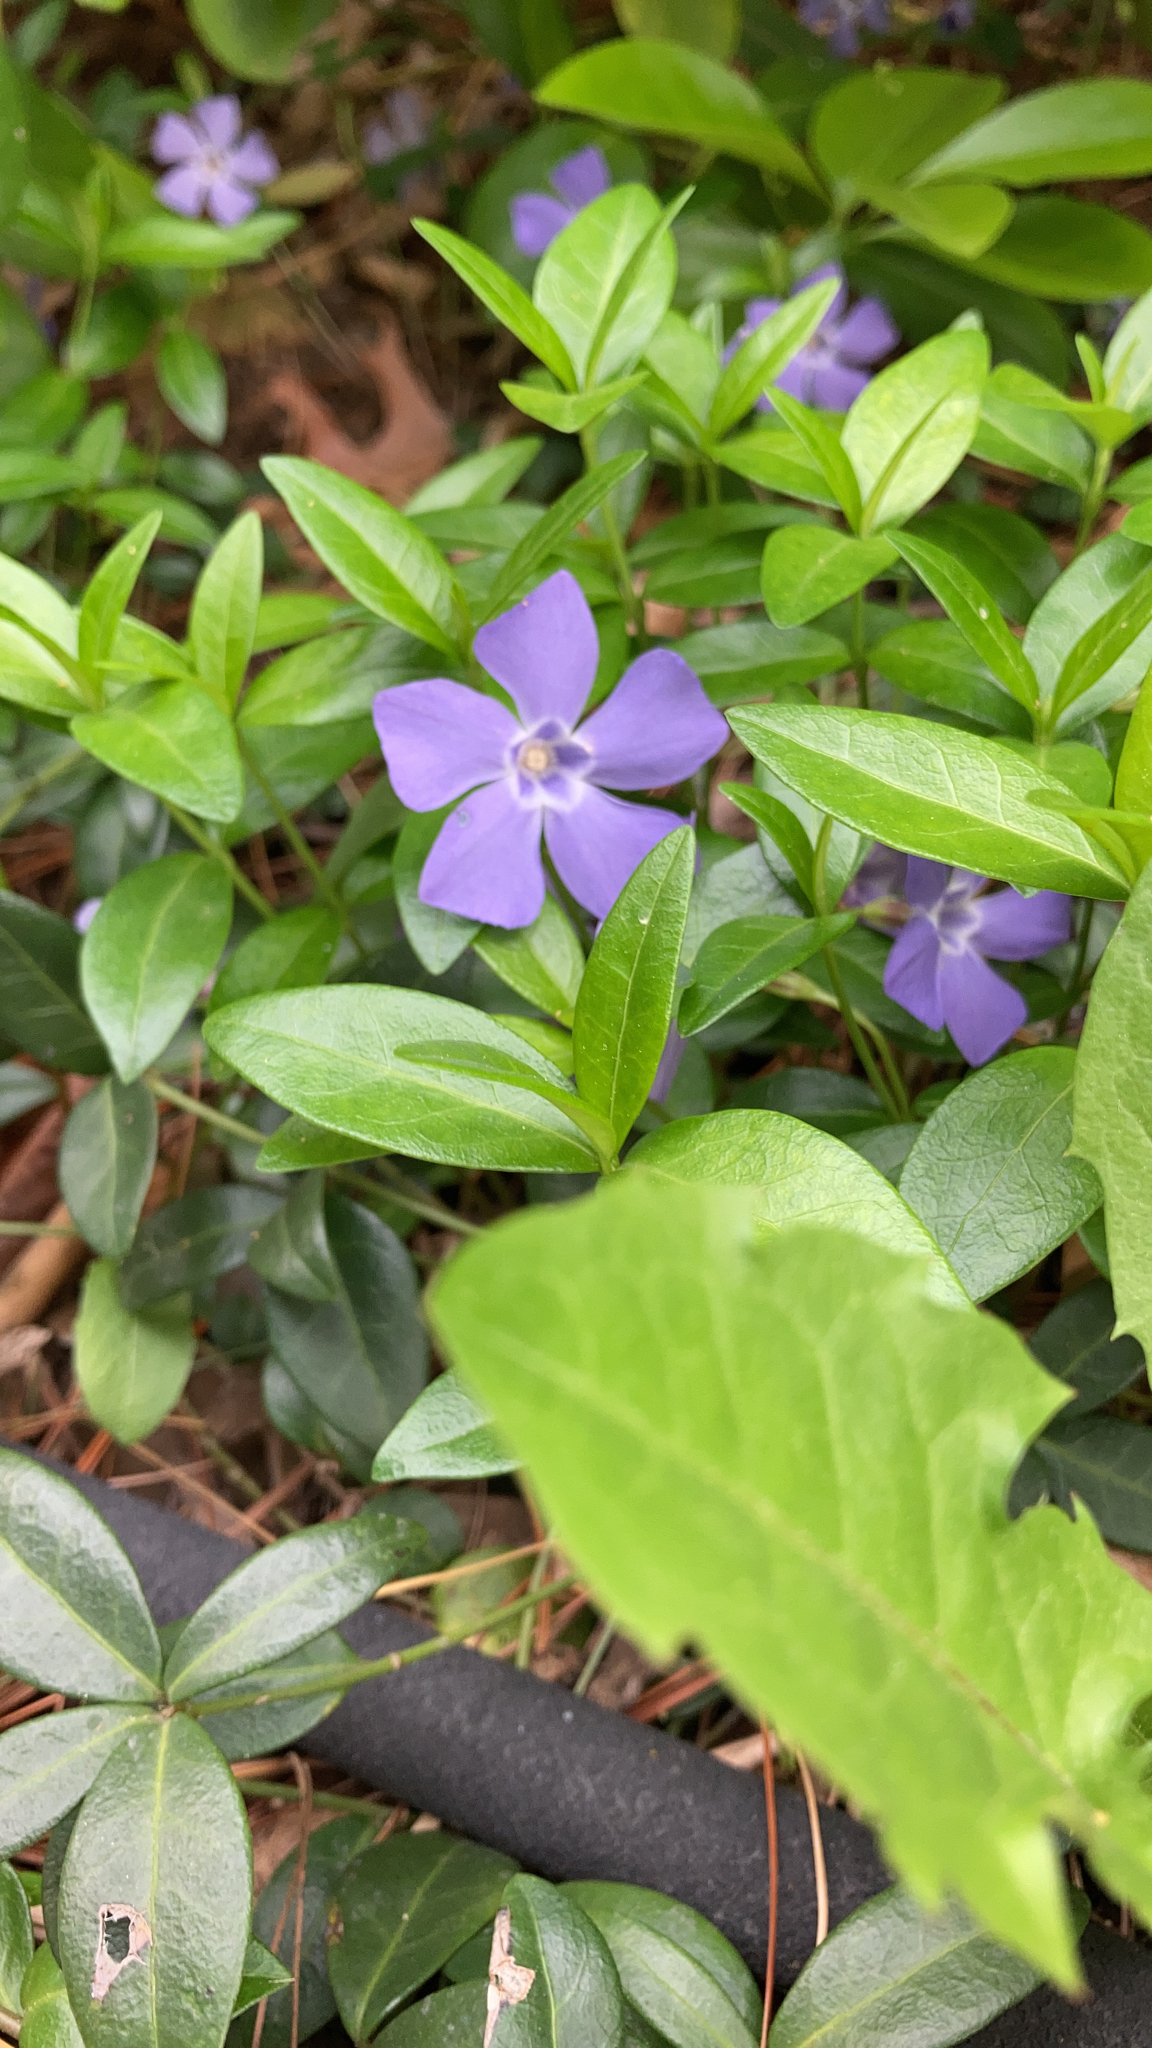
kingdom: Plantae
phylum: Tracheophyta
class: Magnoliopsida
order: Gentianales
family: Apocynaceae
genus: Vinca
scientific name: Vinca minor
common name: Lesser periwinkle
